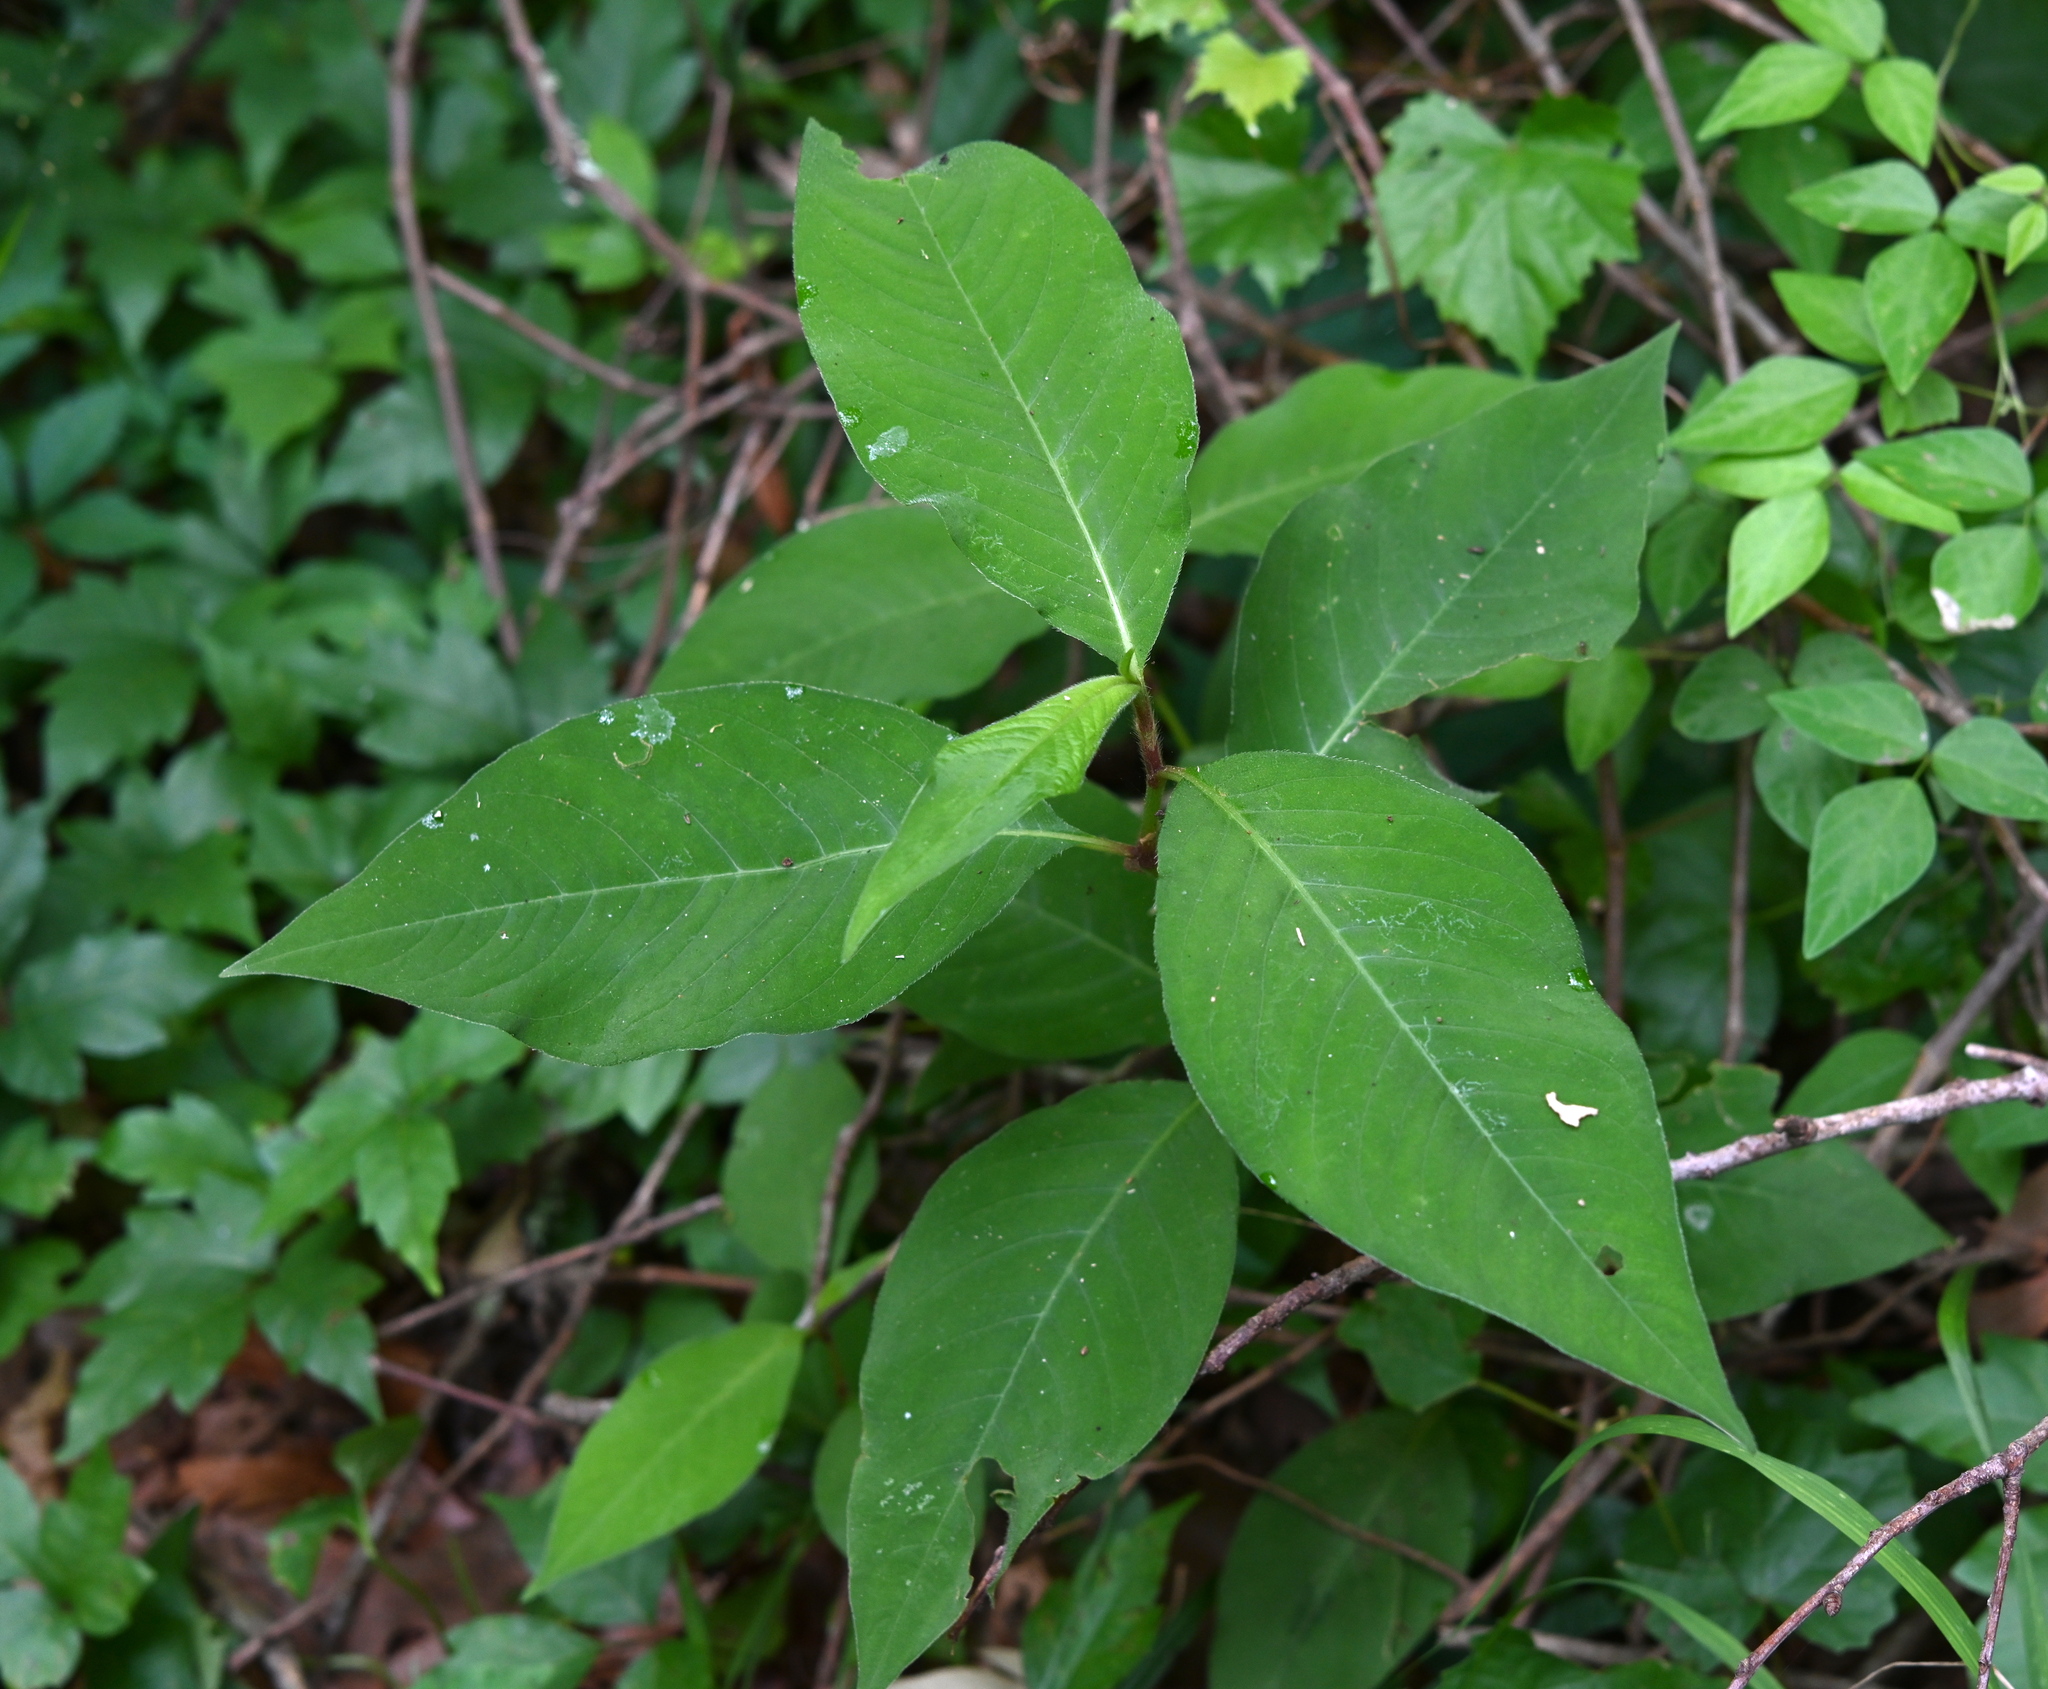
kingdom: Plantae
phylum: Tracheophyta
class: Magnoliopsida
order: Caryophyllales
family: Polygonaceae
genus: Persicaria
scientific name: Persicaria virginiana
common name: Jumpseed
